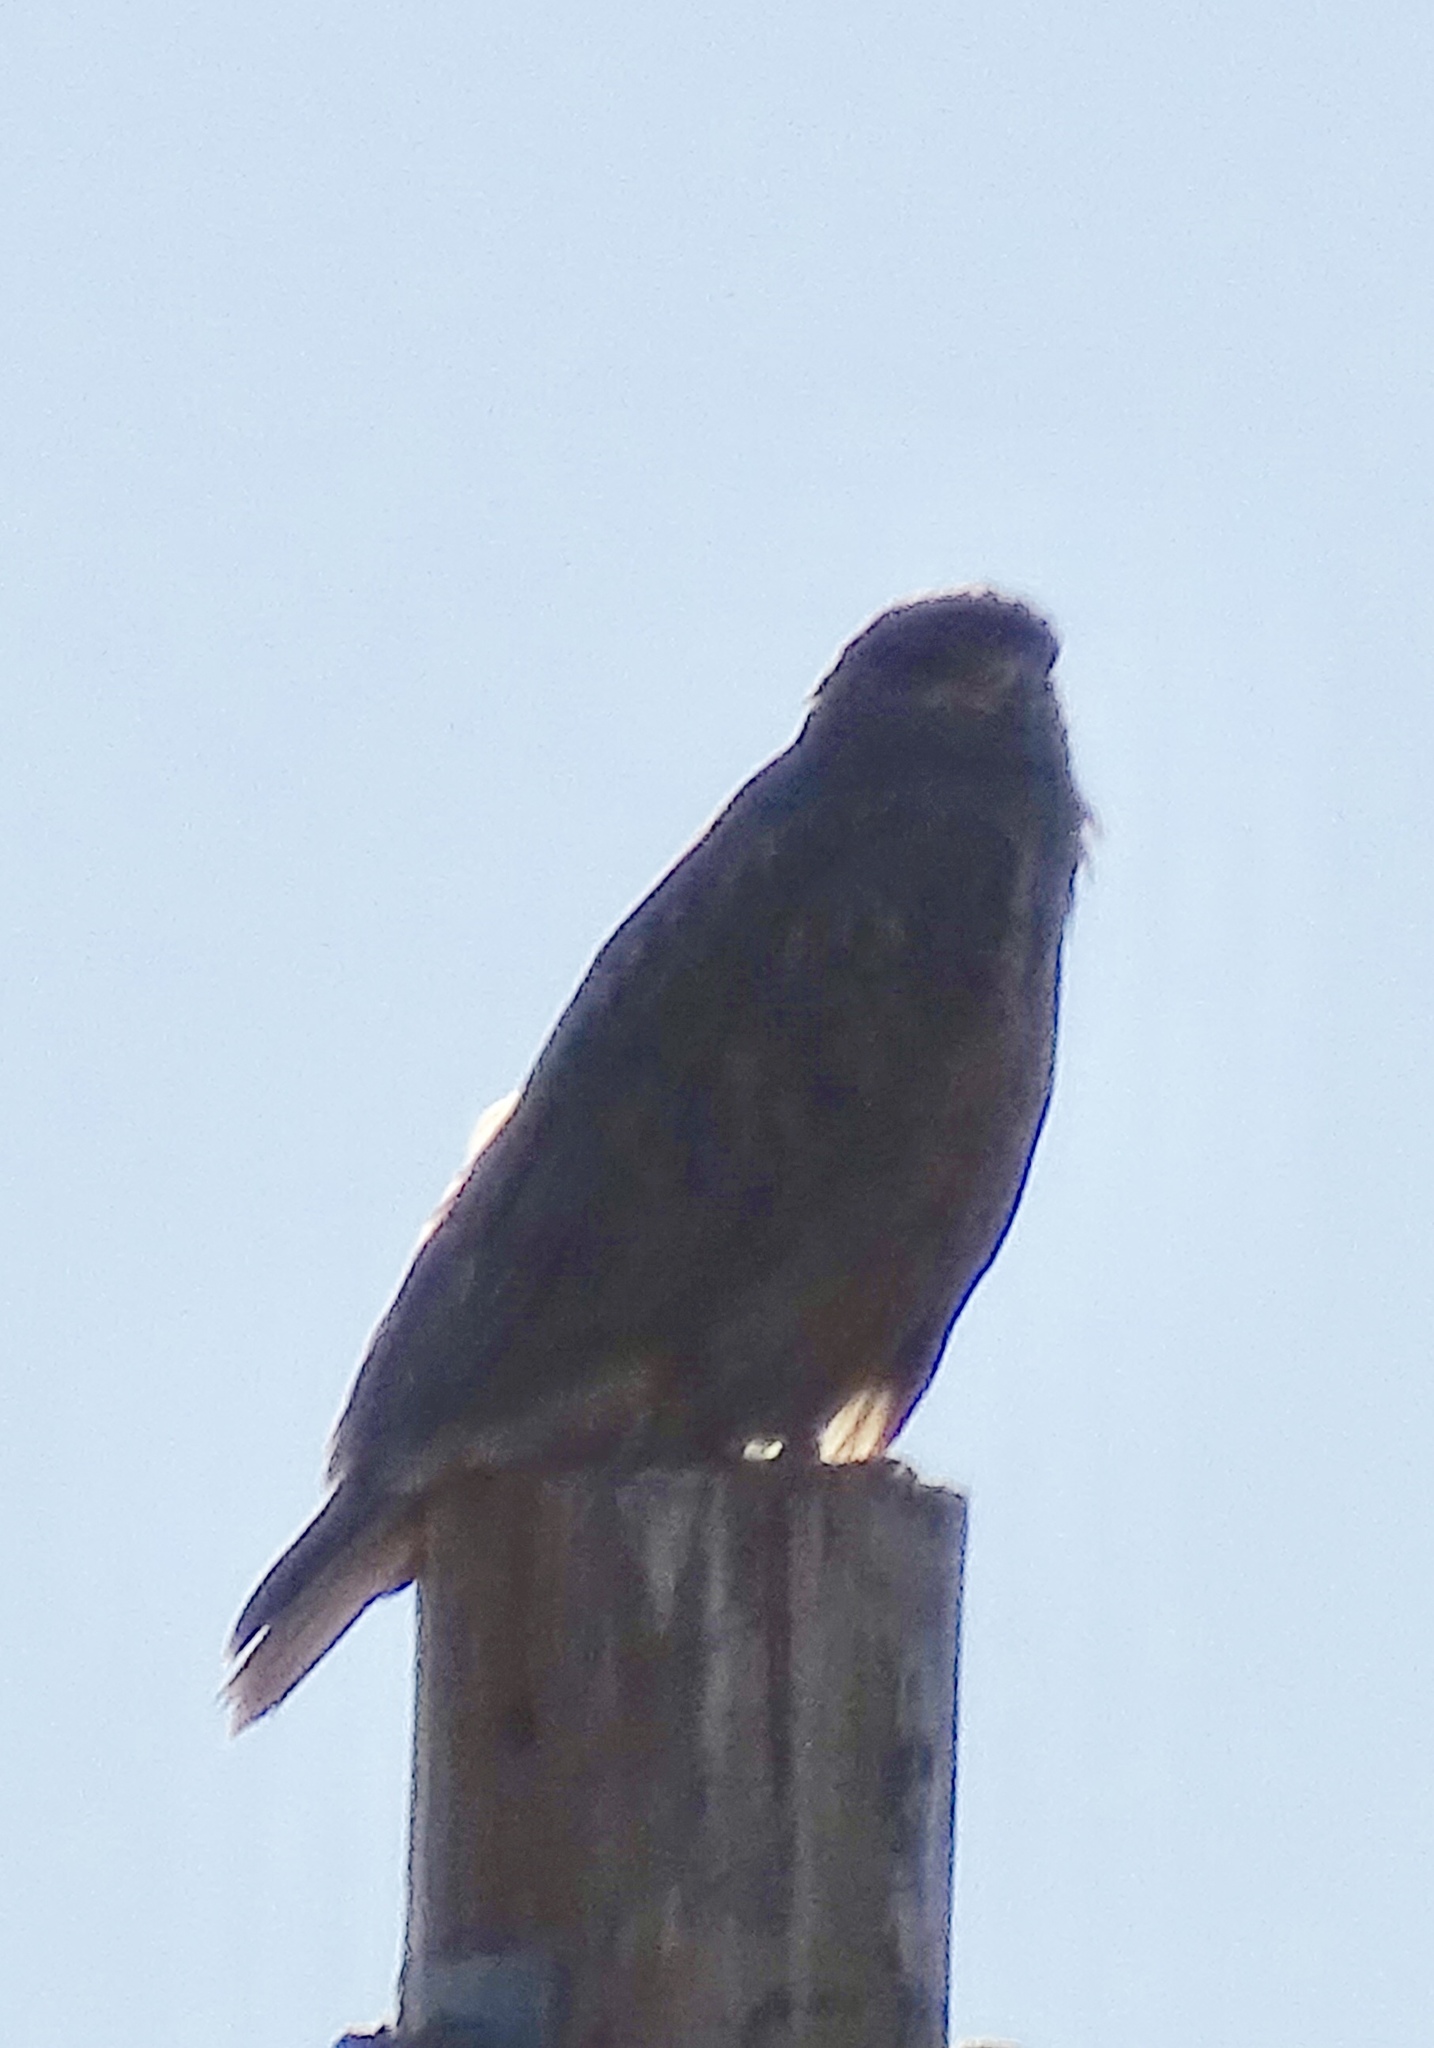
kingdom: Animalia
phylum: Chordata
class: Aves
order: Accipitriformes
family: Accipitridae
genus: Buteo
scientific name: Buteo jamaicensis
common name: Red-tailed hawk
